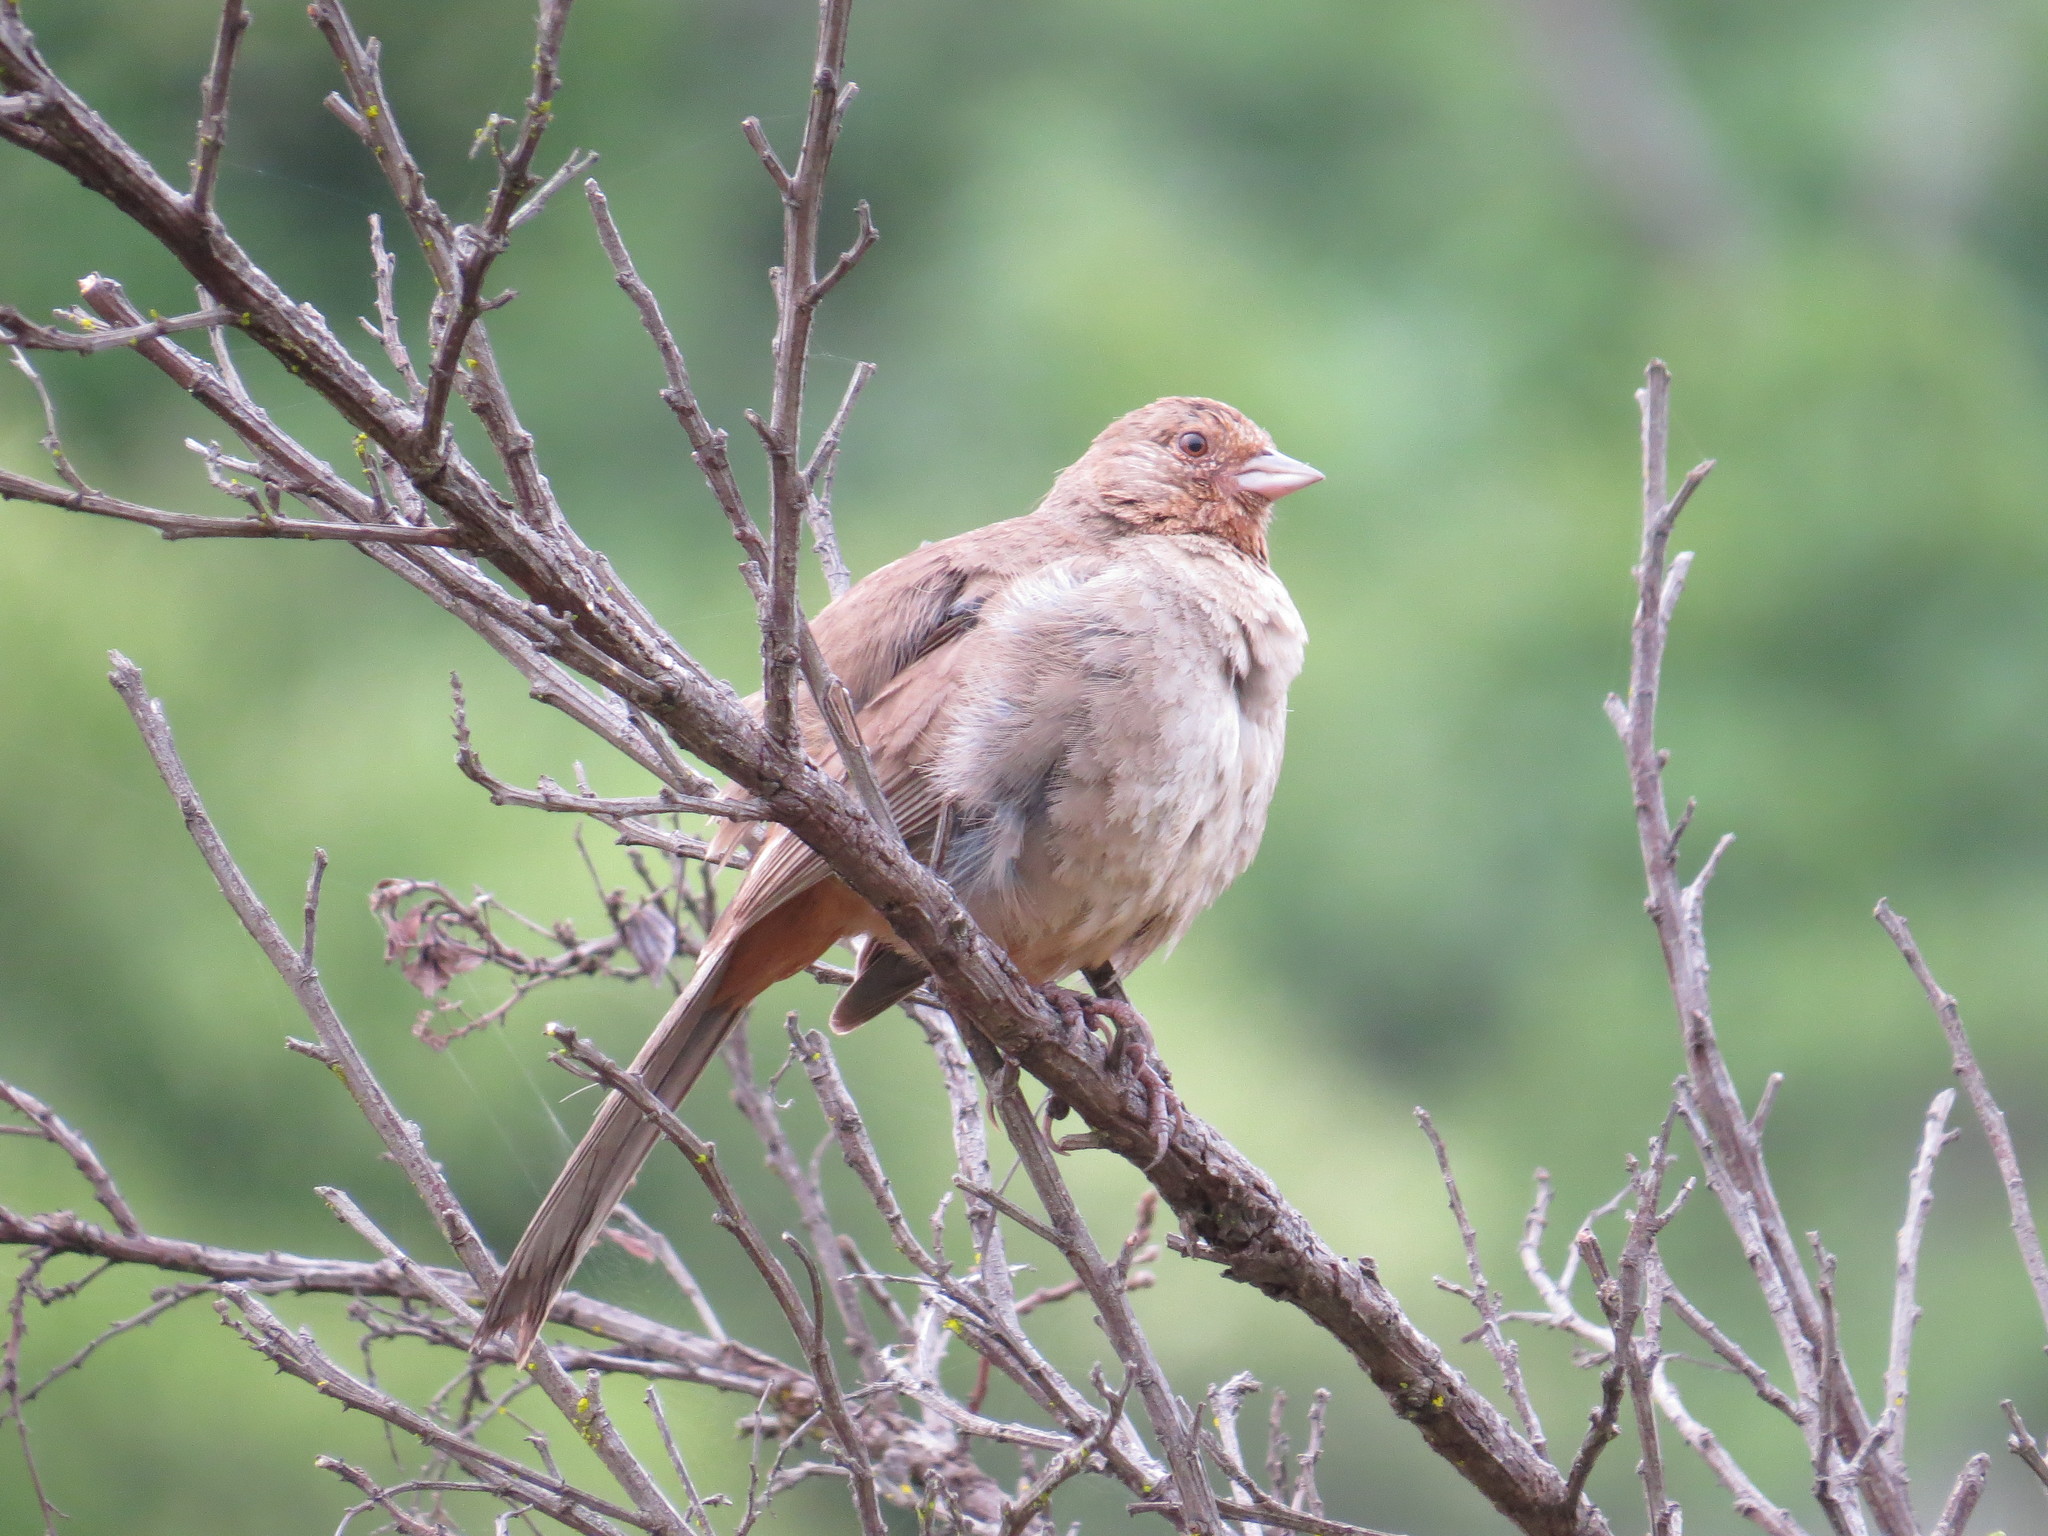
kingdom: Animalia
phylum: Chordata
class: Aves
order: Passeriformes
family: Passerellidae
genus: Melozone
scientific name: Melozone crissalis
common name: California towhee
